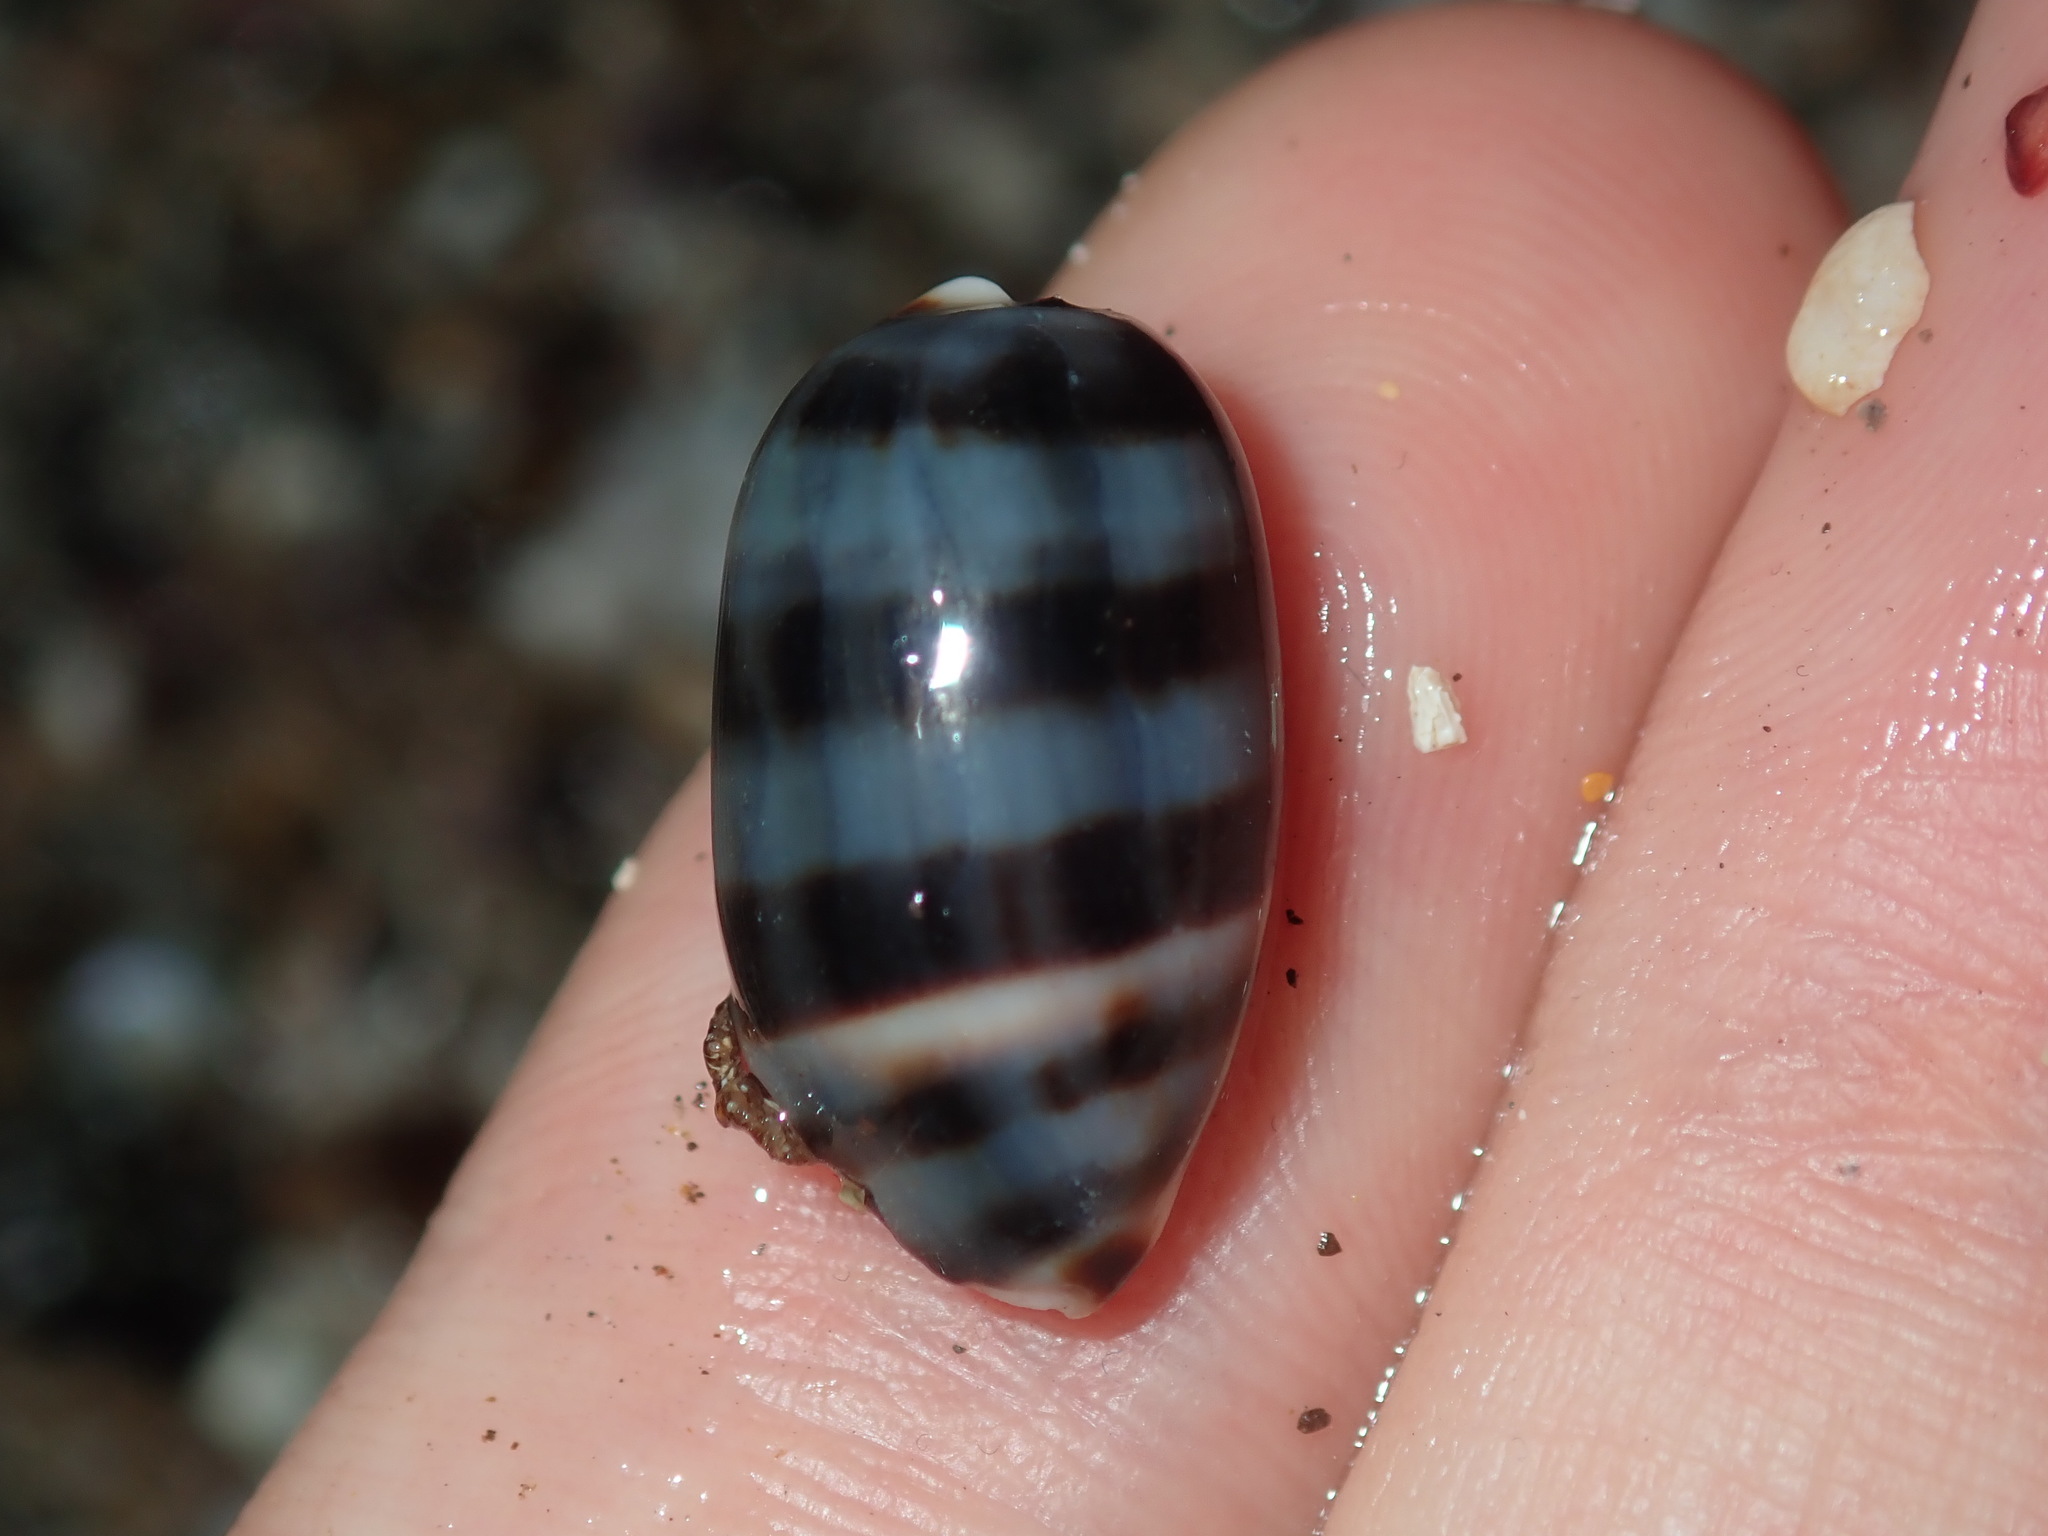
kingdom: Animalia
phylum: Mollusca
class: Gastropoda
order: Littorinimorpha
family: Cypraeidae
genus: Melicerona
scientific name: Melicerona listeri
